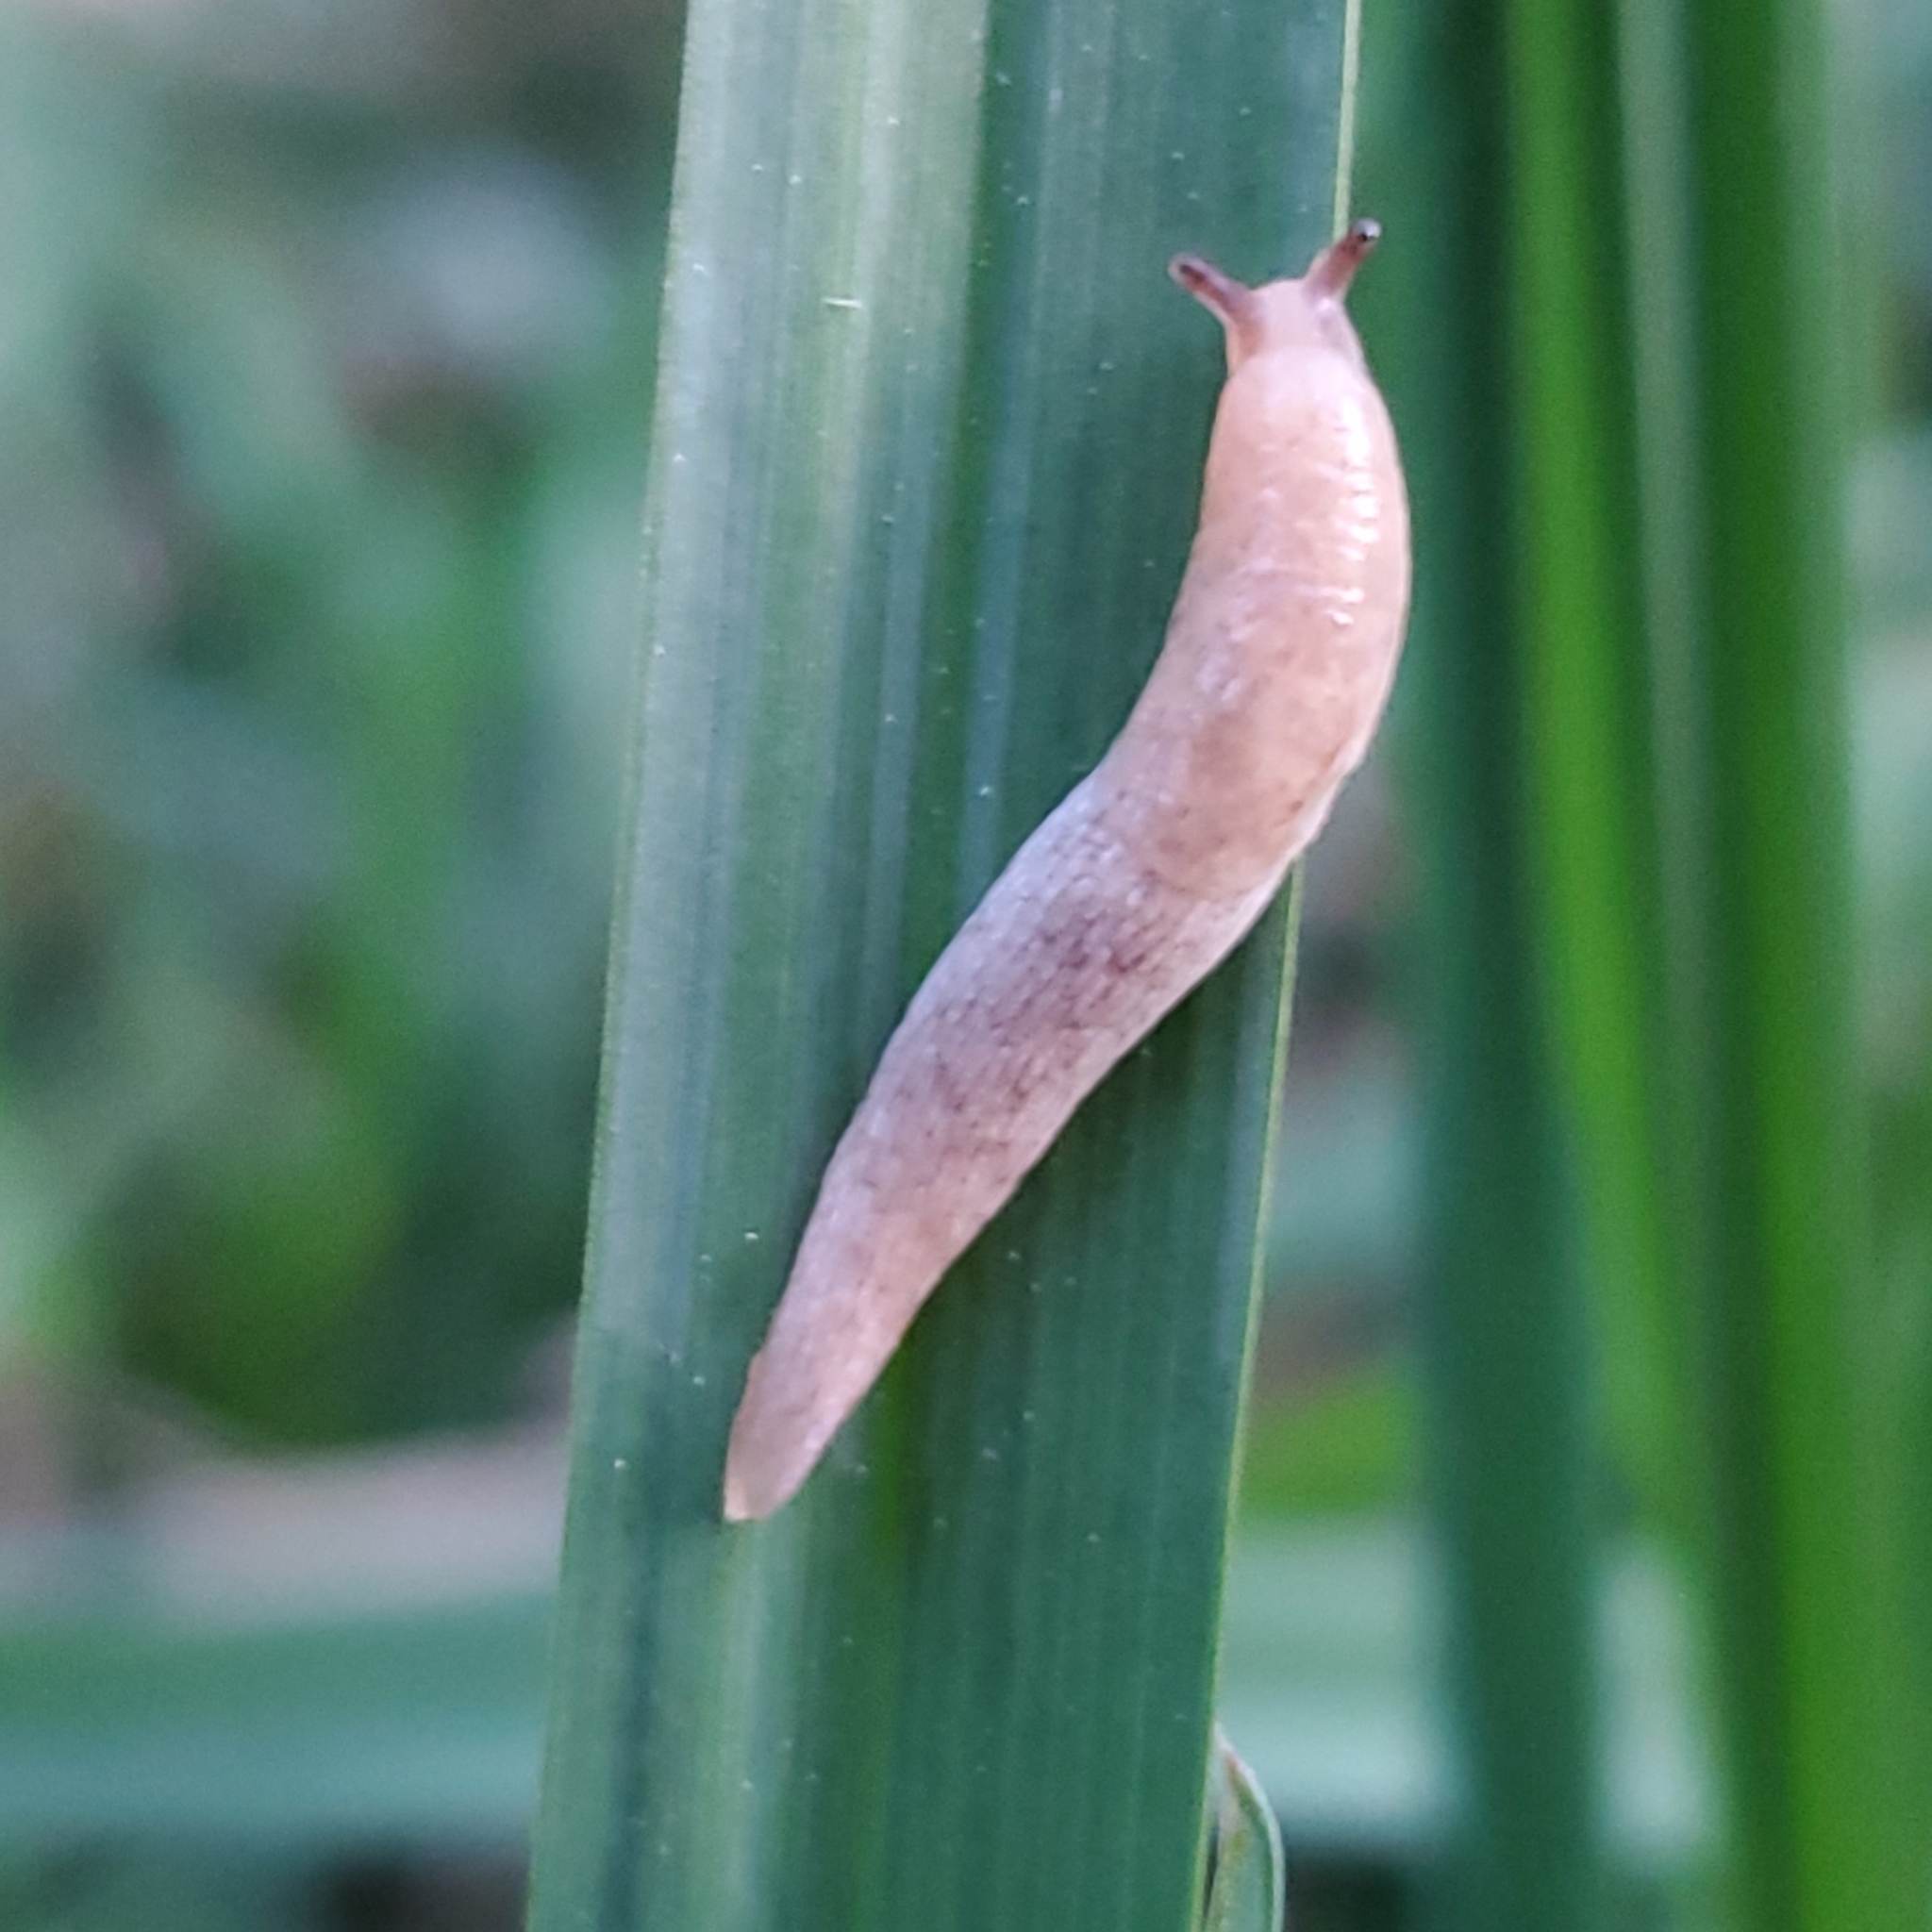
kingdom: Animalia
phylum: Mollusca
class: Gastropoda
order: Stylommatophora
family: Agriolimacidae
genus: Deroceras
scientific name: Deroceras reticulatum
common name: Gray field slug
